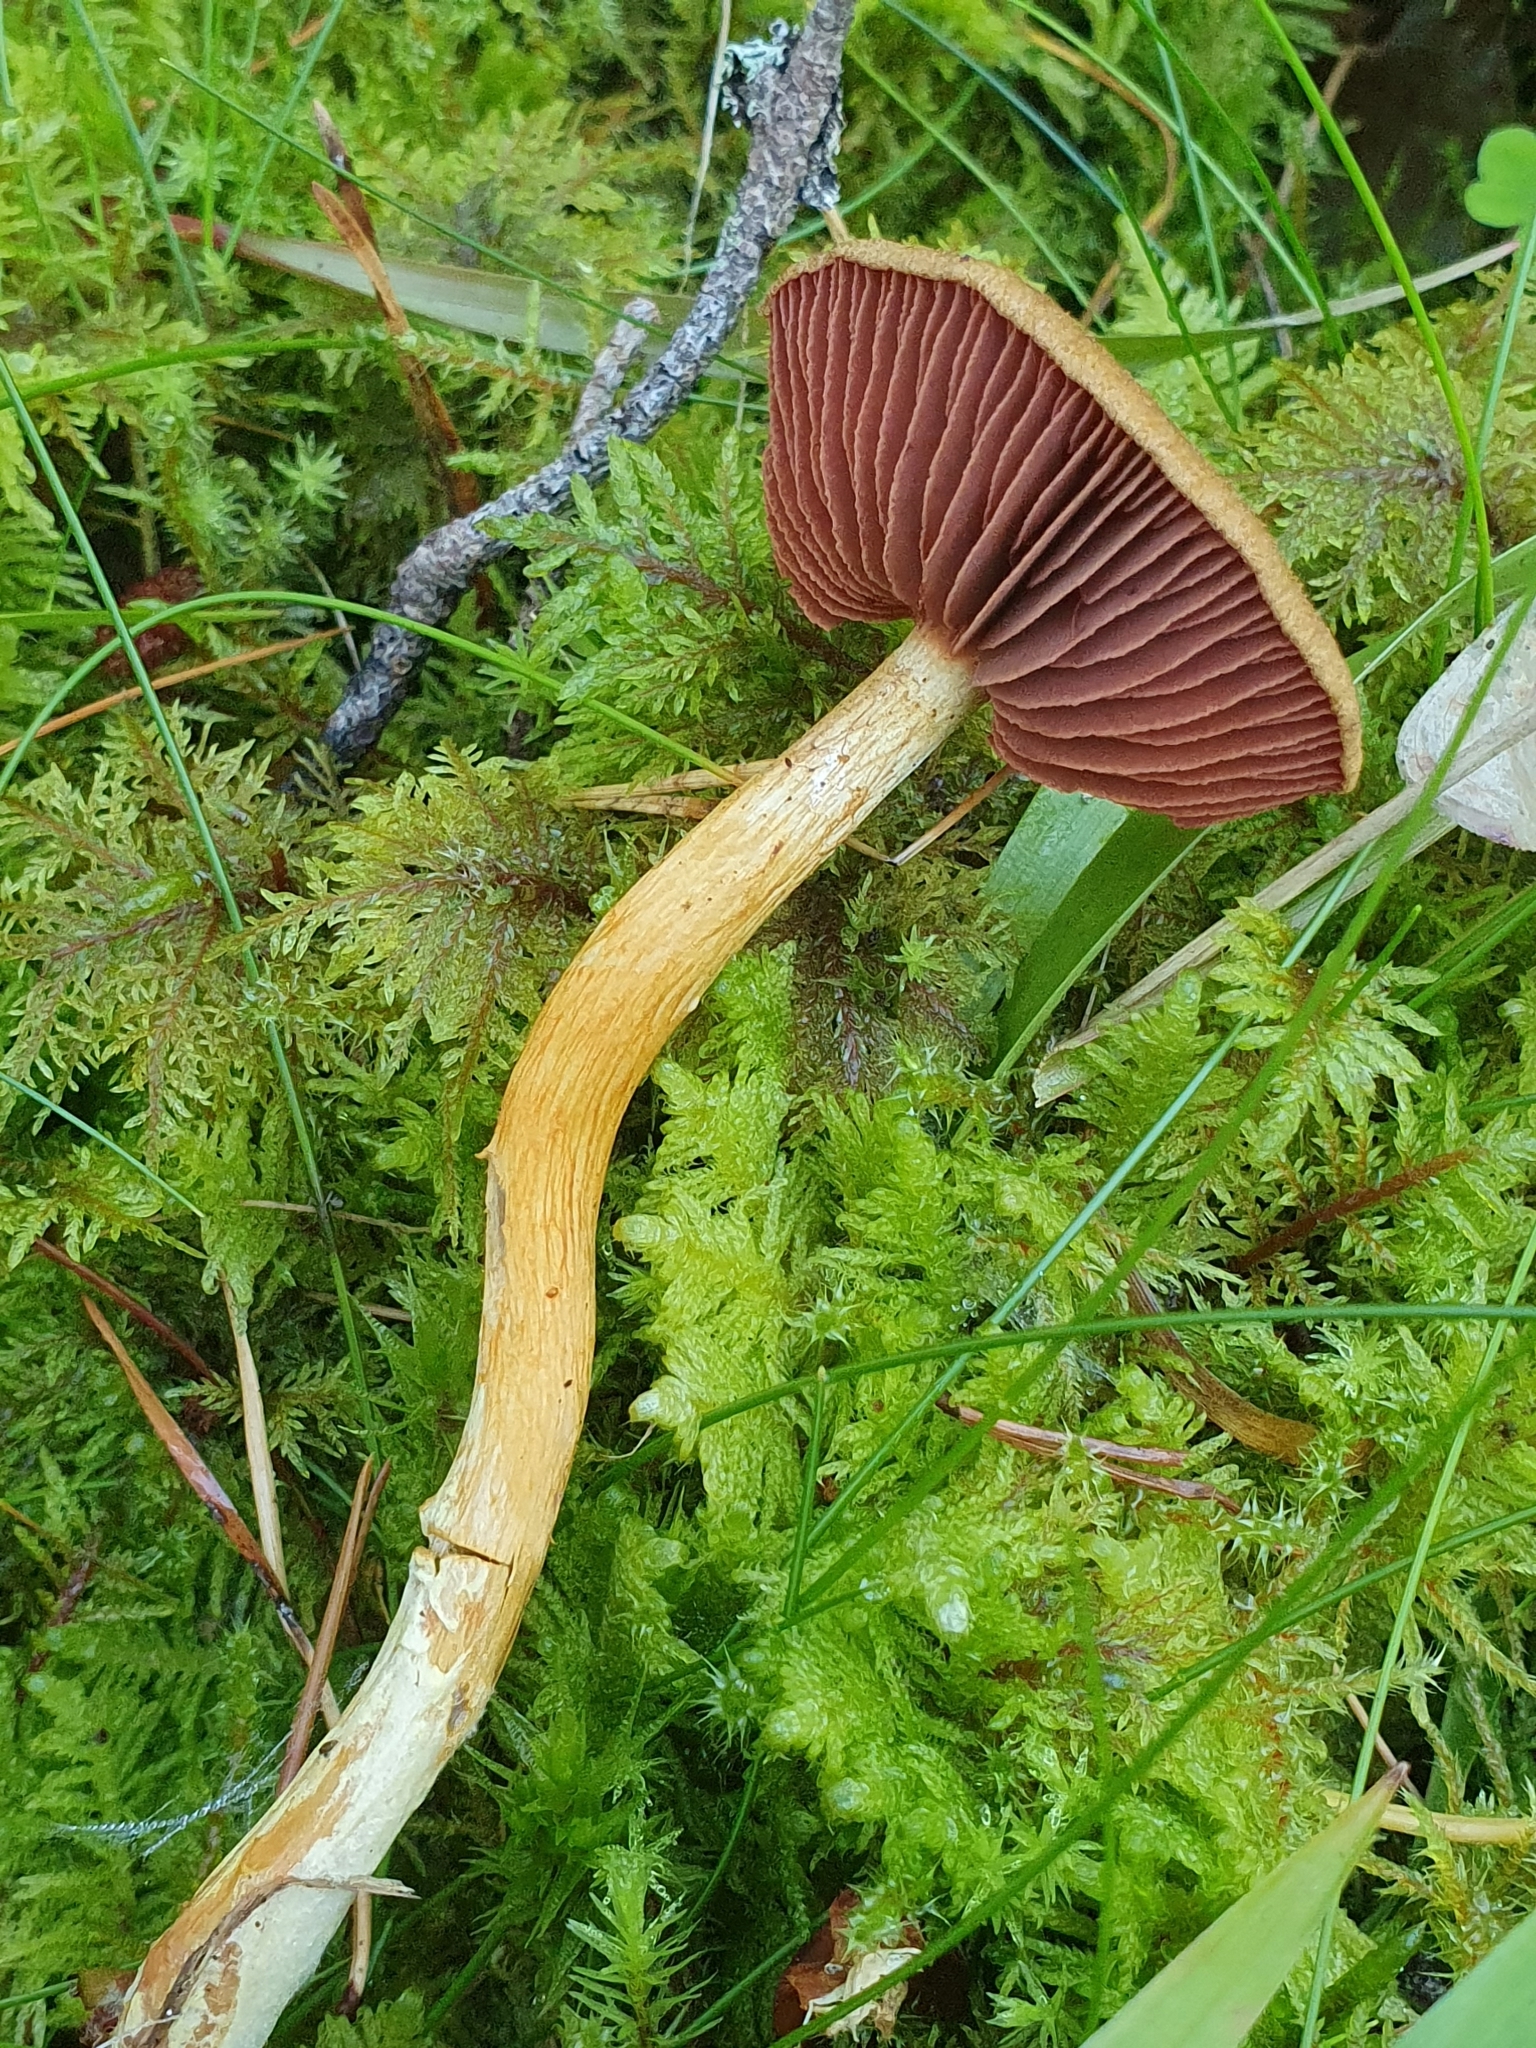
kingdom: Fungi
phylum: Basidiomycota
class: Agaricomycetes
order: Agaricales
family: Cortinariaceae
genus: Cortinarius
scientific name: Cortinarius semisanguineus
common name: Surprise webcap
